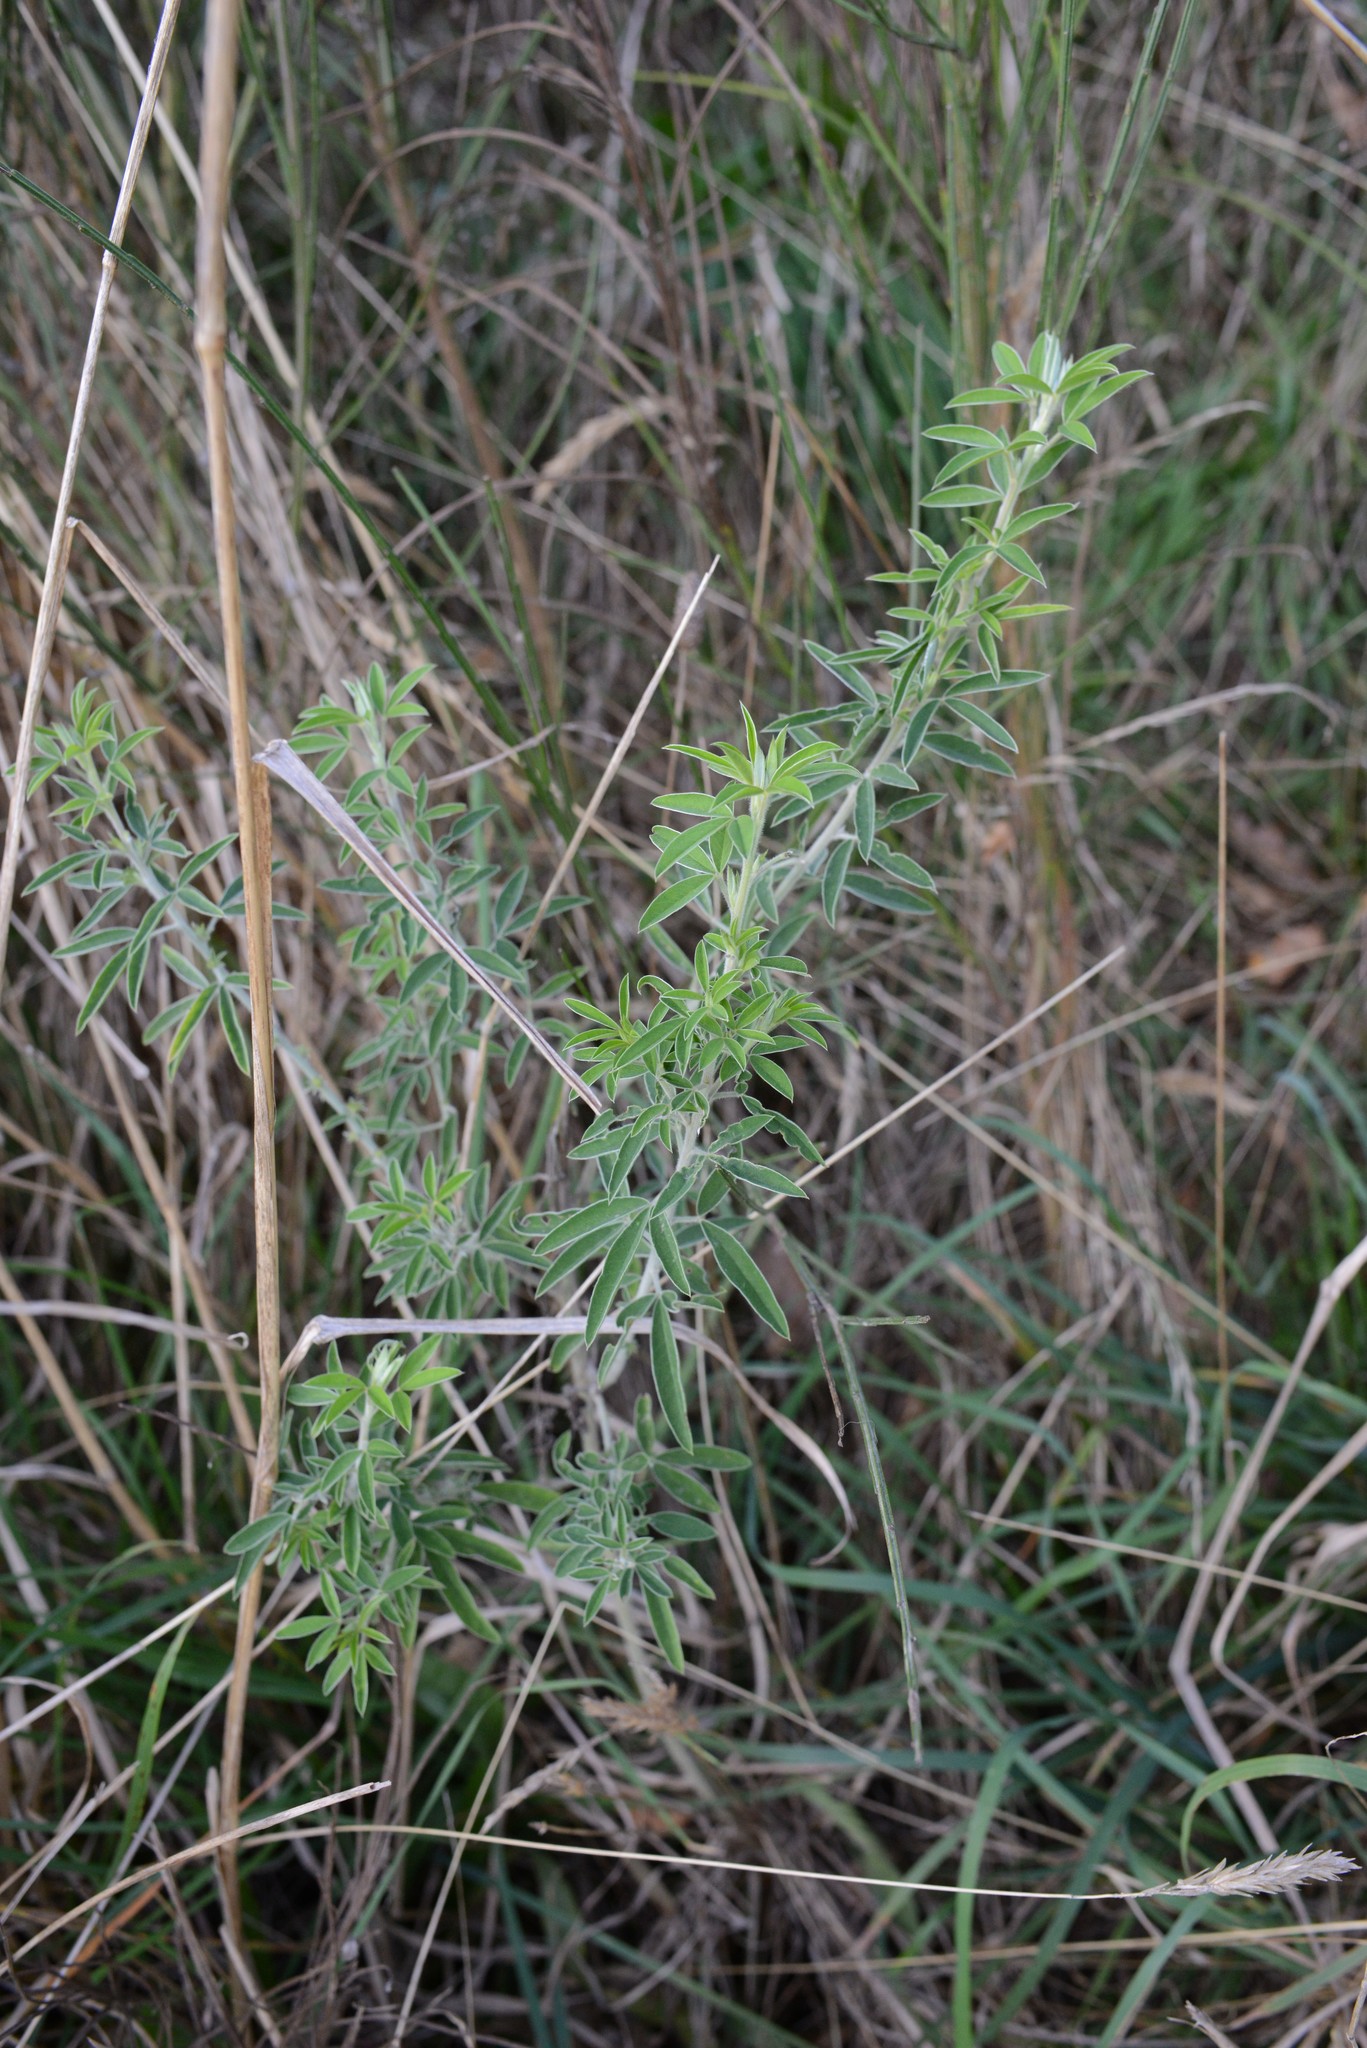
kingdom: Plantae
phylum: Tracheophyta
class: Magnoliopsida
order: Fabales
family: Fabaceae
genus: Chamaecytisus
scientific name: Chamaecytisus prolifer
